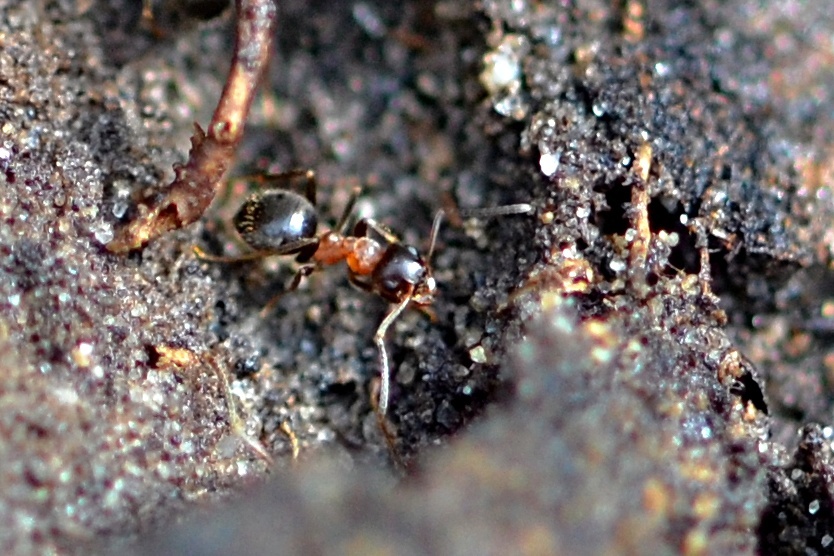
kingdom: Animalia
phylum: Arthropoda
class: Insecta
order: Hymenoptera
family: Formicidae
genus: Lasius
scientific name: Lasius emarginatus
